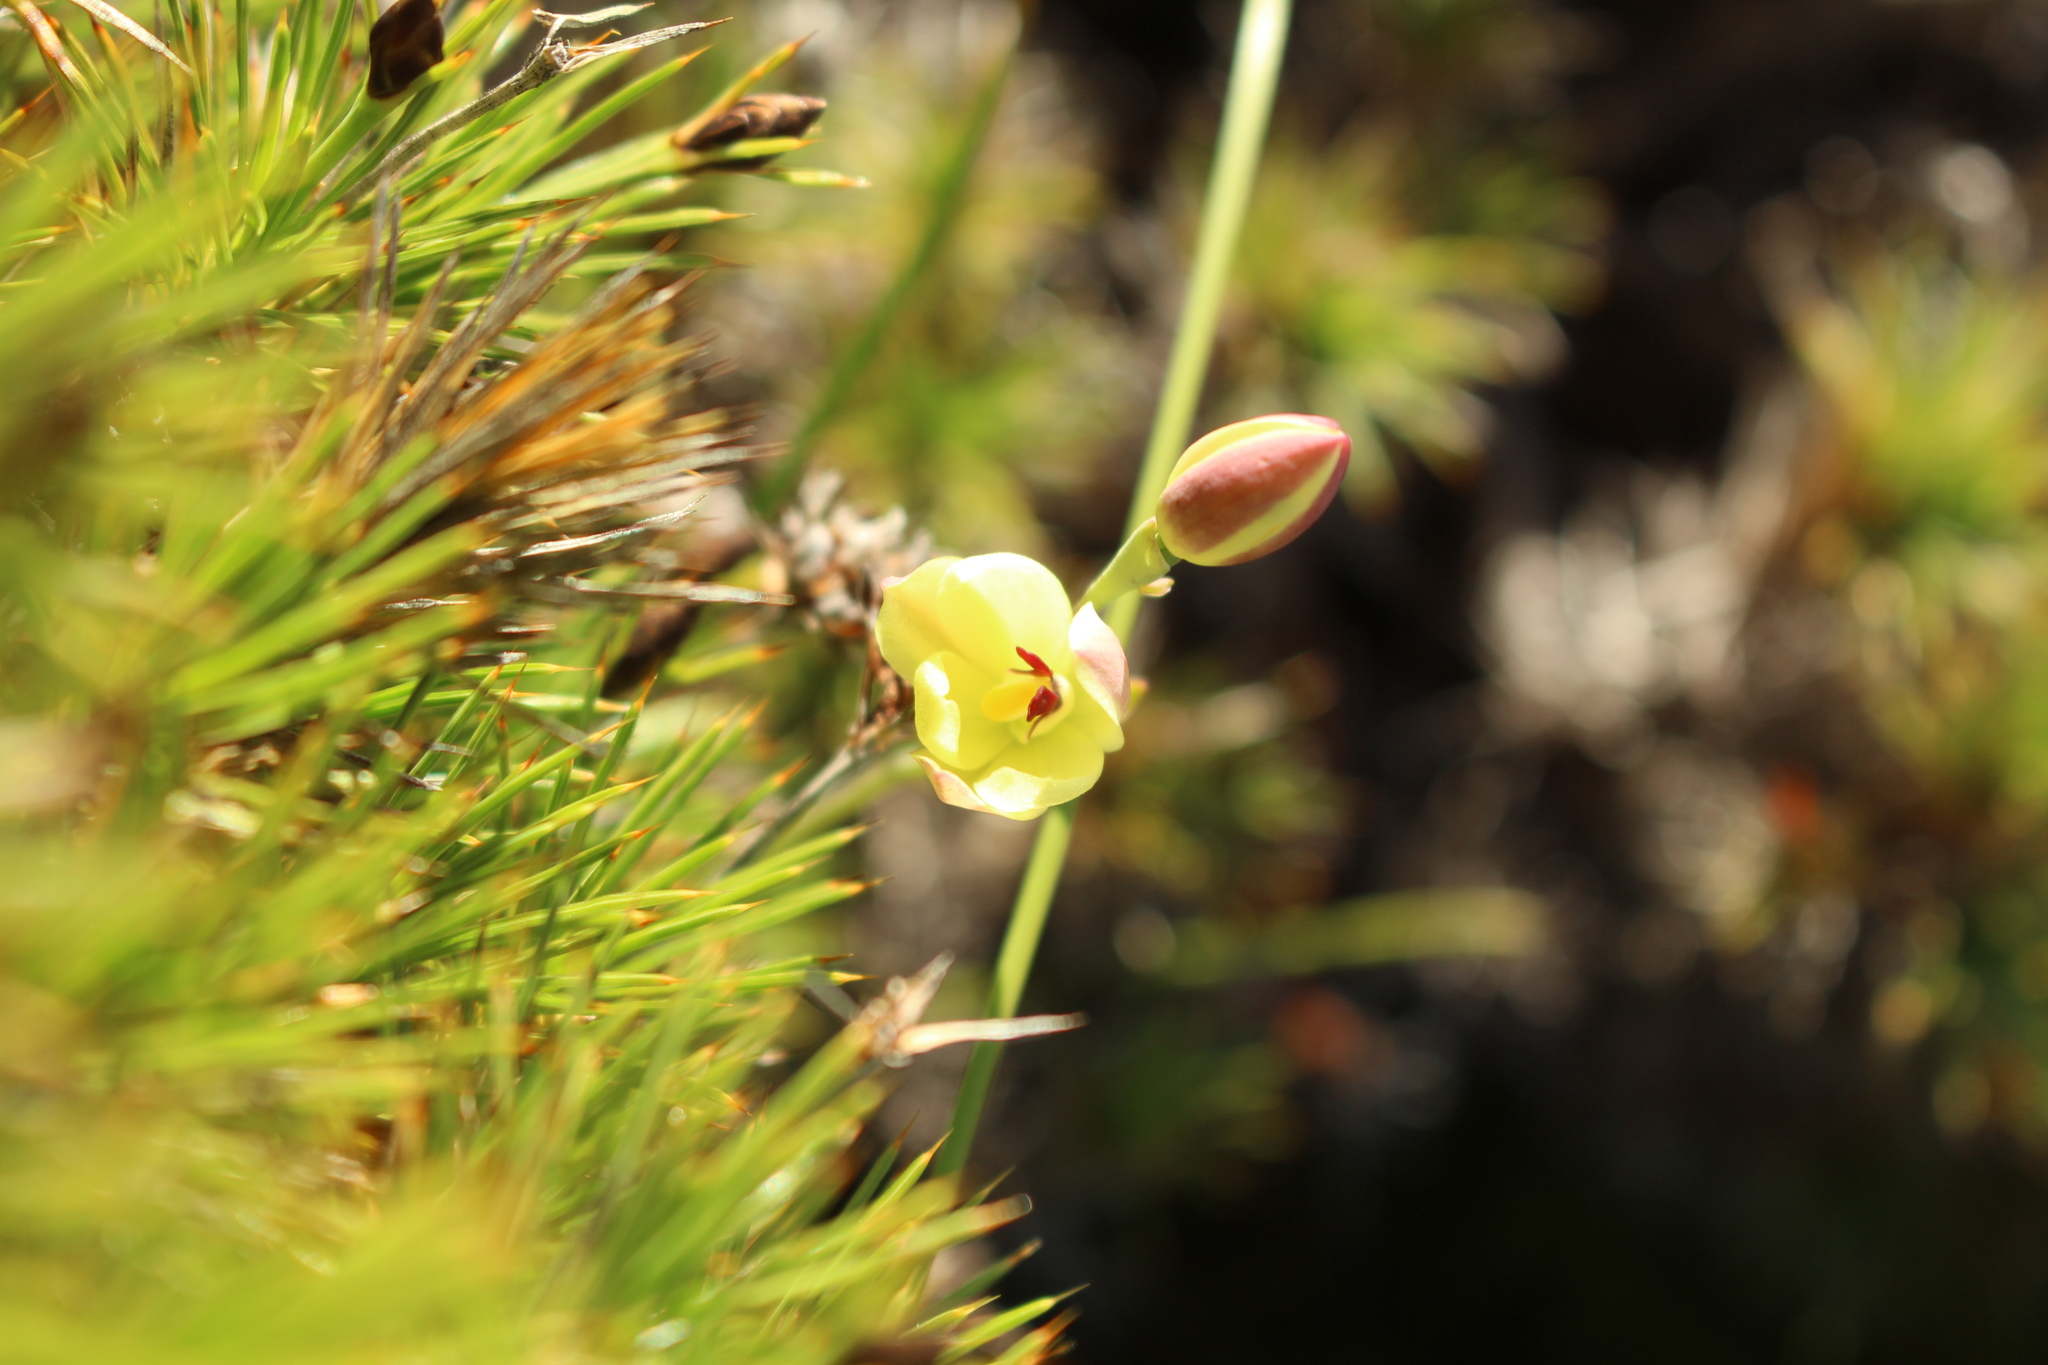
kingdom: Plantae
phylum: Tracheophyta
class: Liliopsida
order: Asparagales
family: Orchidaceae
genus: Thelymitra
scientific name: Thelymitra antennifera
